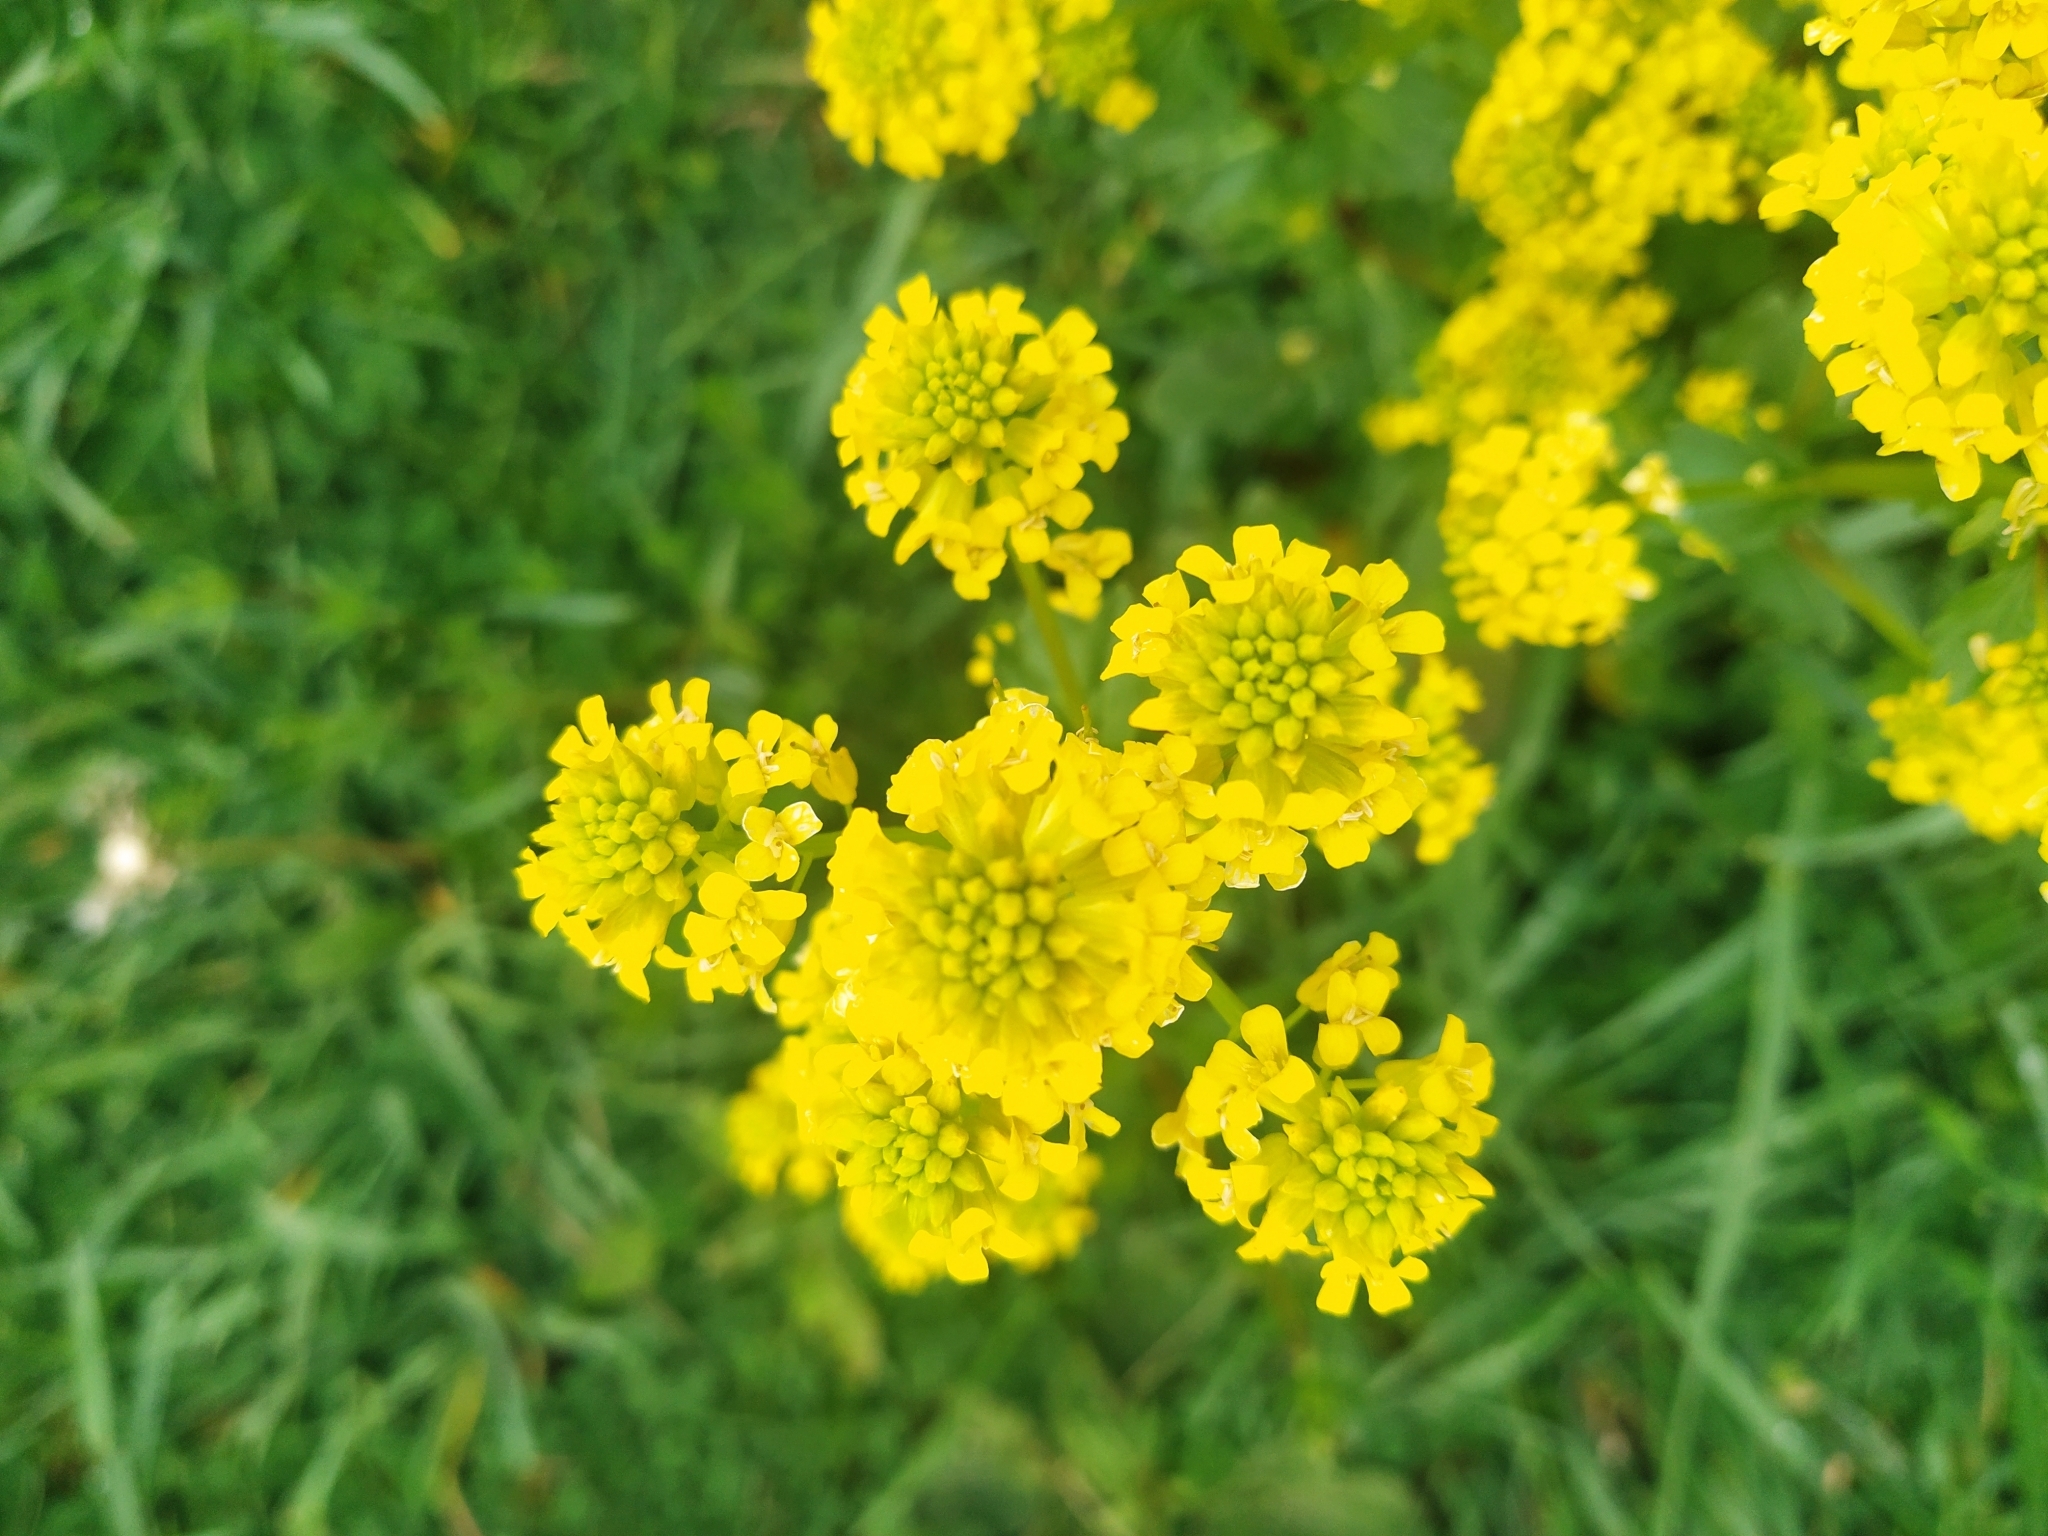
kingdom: Plantae
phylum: Tracheophyta
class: Magnoliopsida
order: Brassicales
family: Brassicaceae
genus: Barbarea
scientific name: Barbarea vulgaris
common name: Cressy-greens
